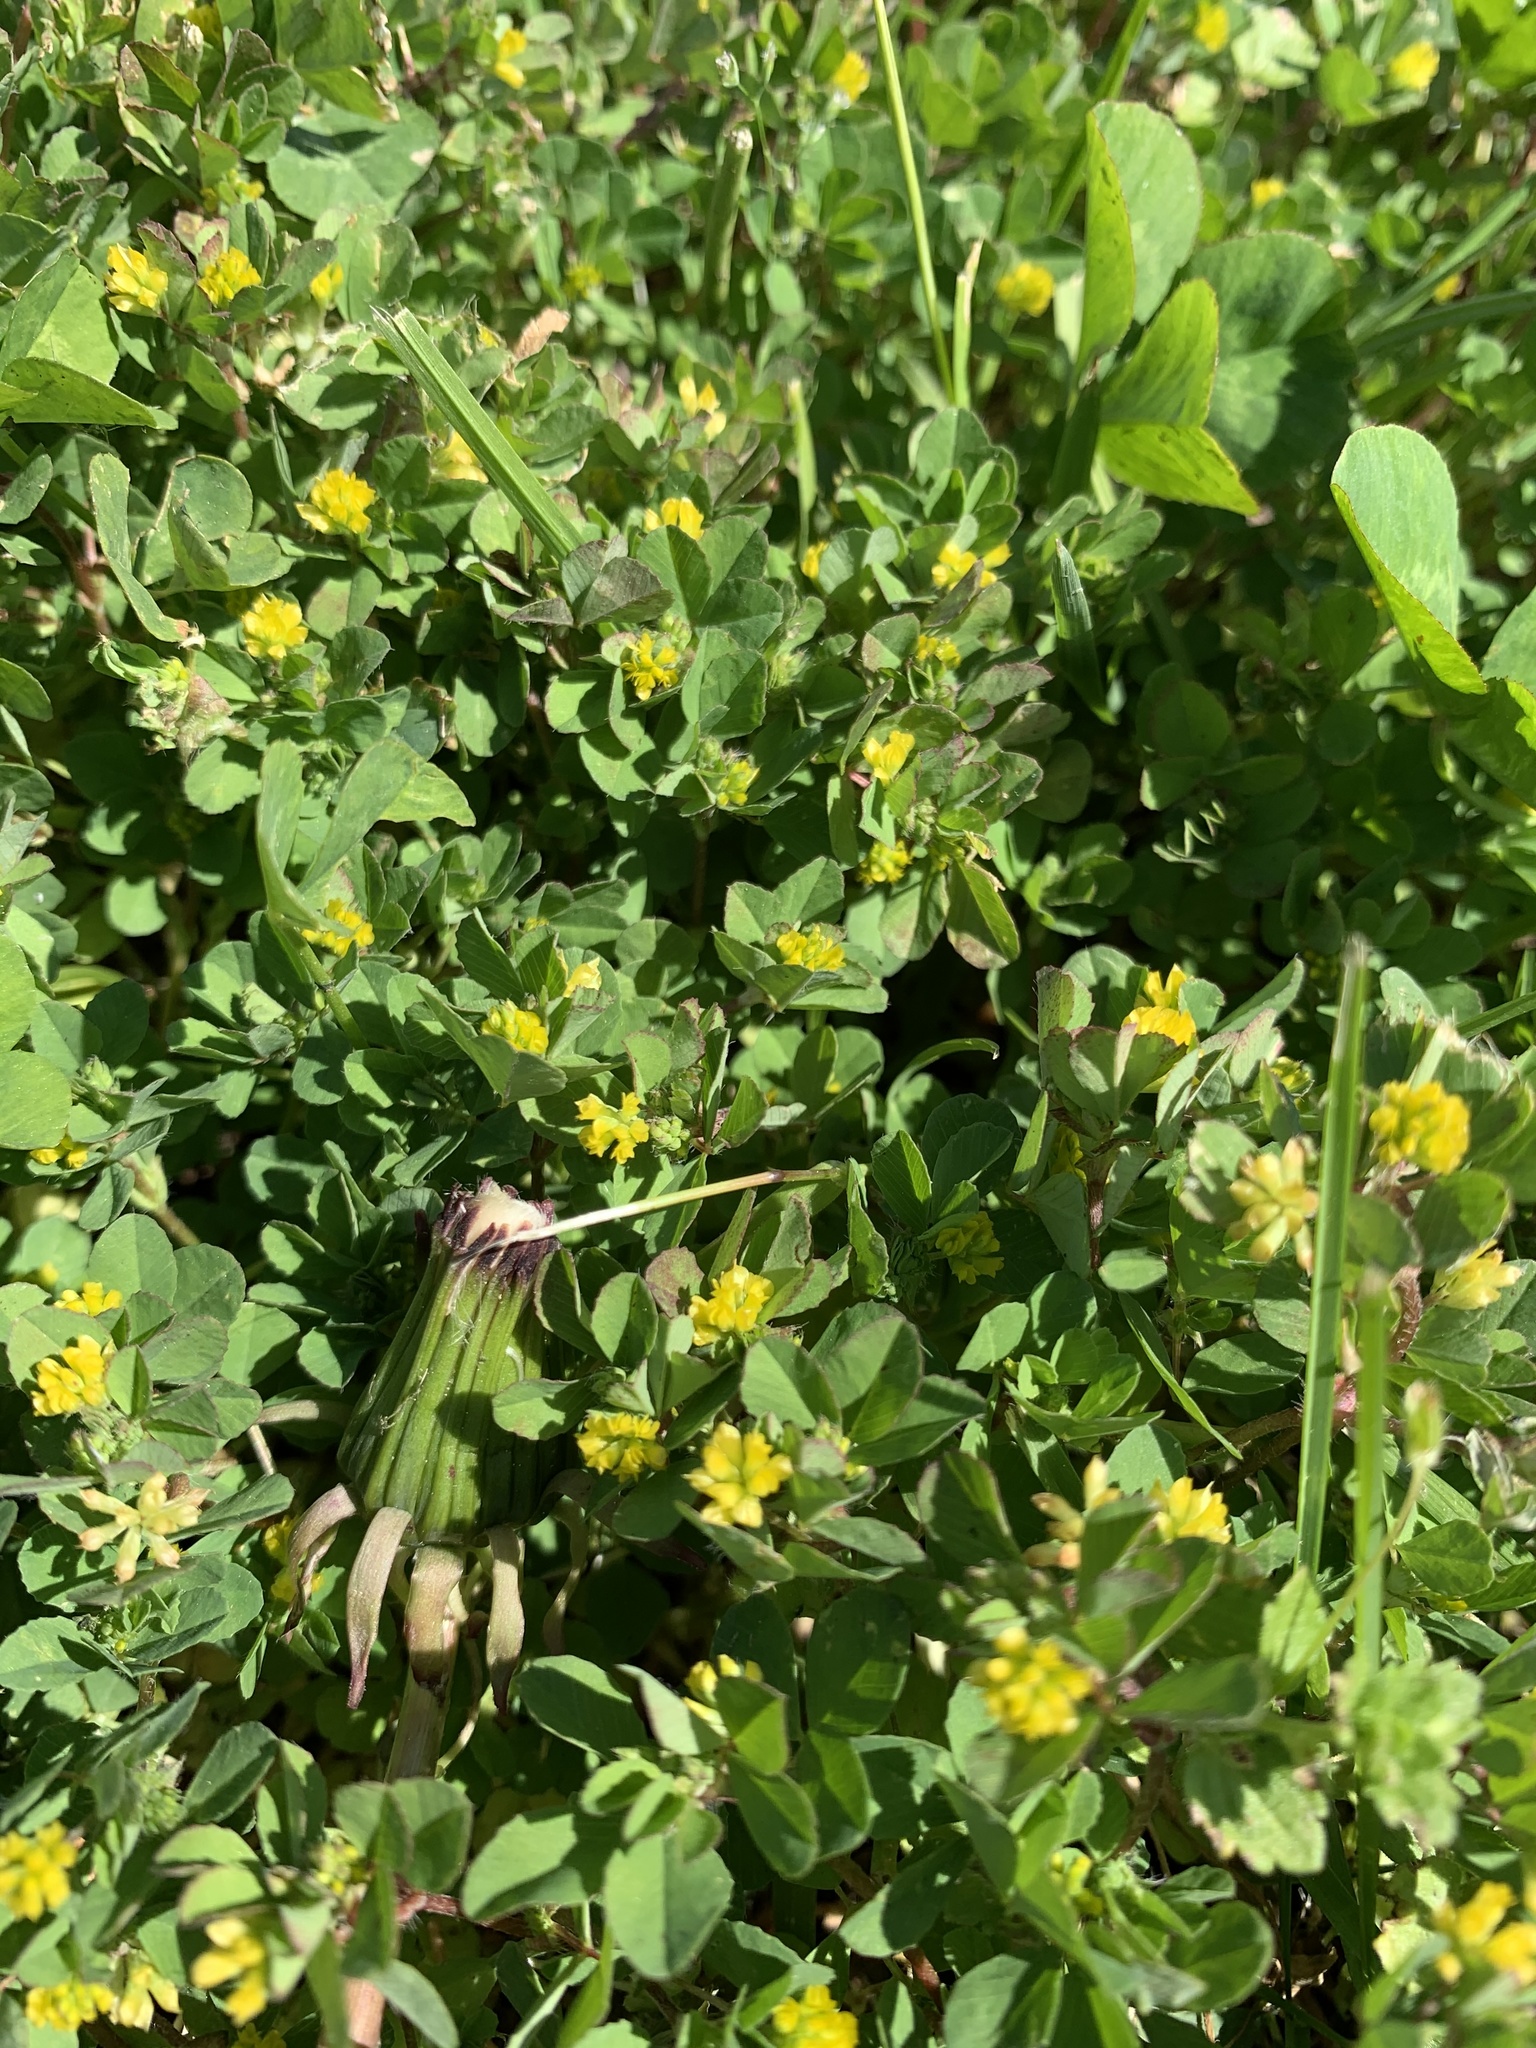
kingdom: Plantae
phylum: Tracheophyta
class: Magnoliopsida
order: Fabales
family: Fabaceae
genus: Trifolium
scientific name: Trifolium dubium
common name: Suckling clover
